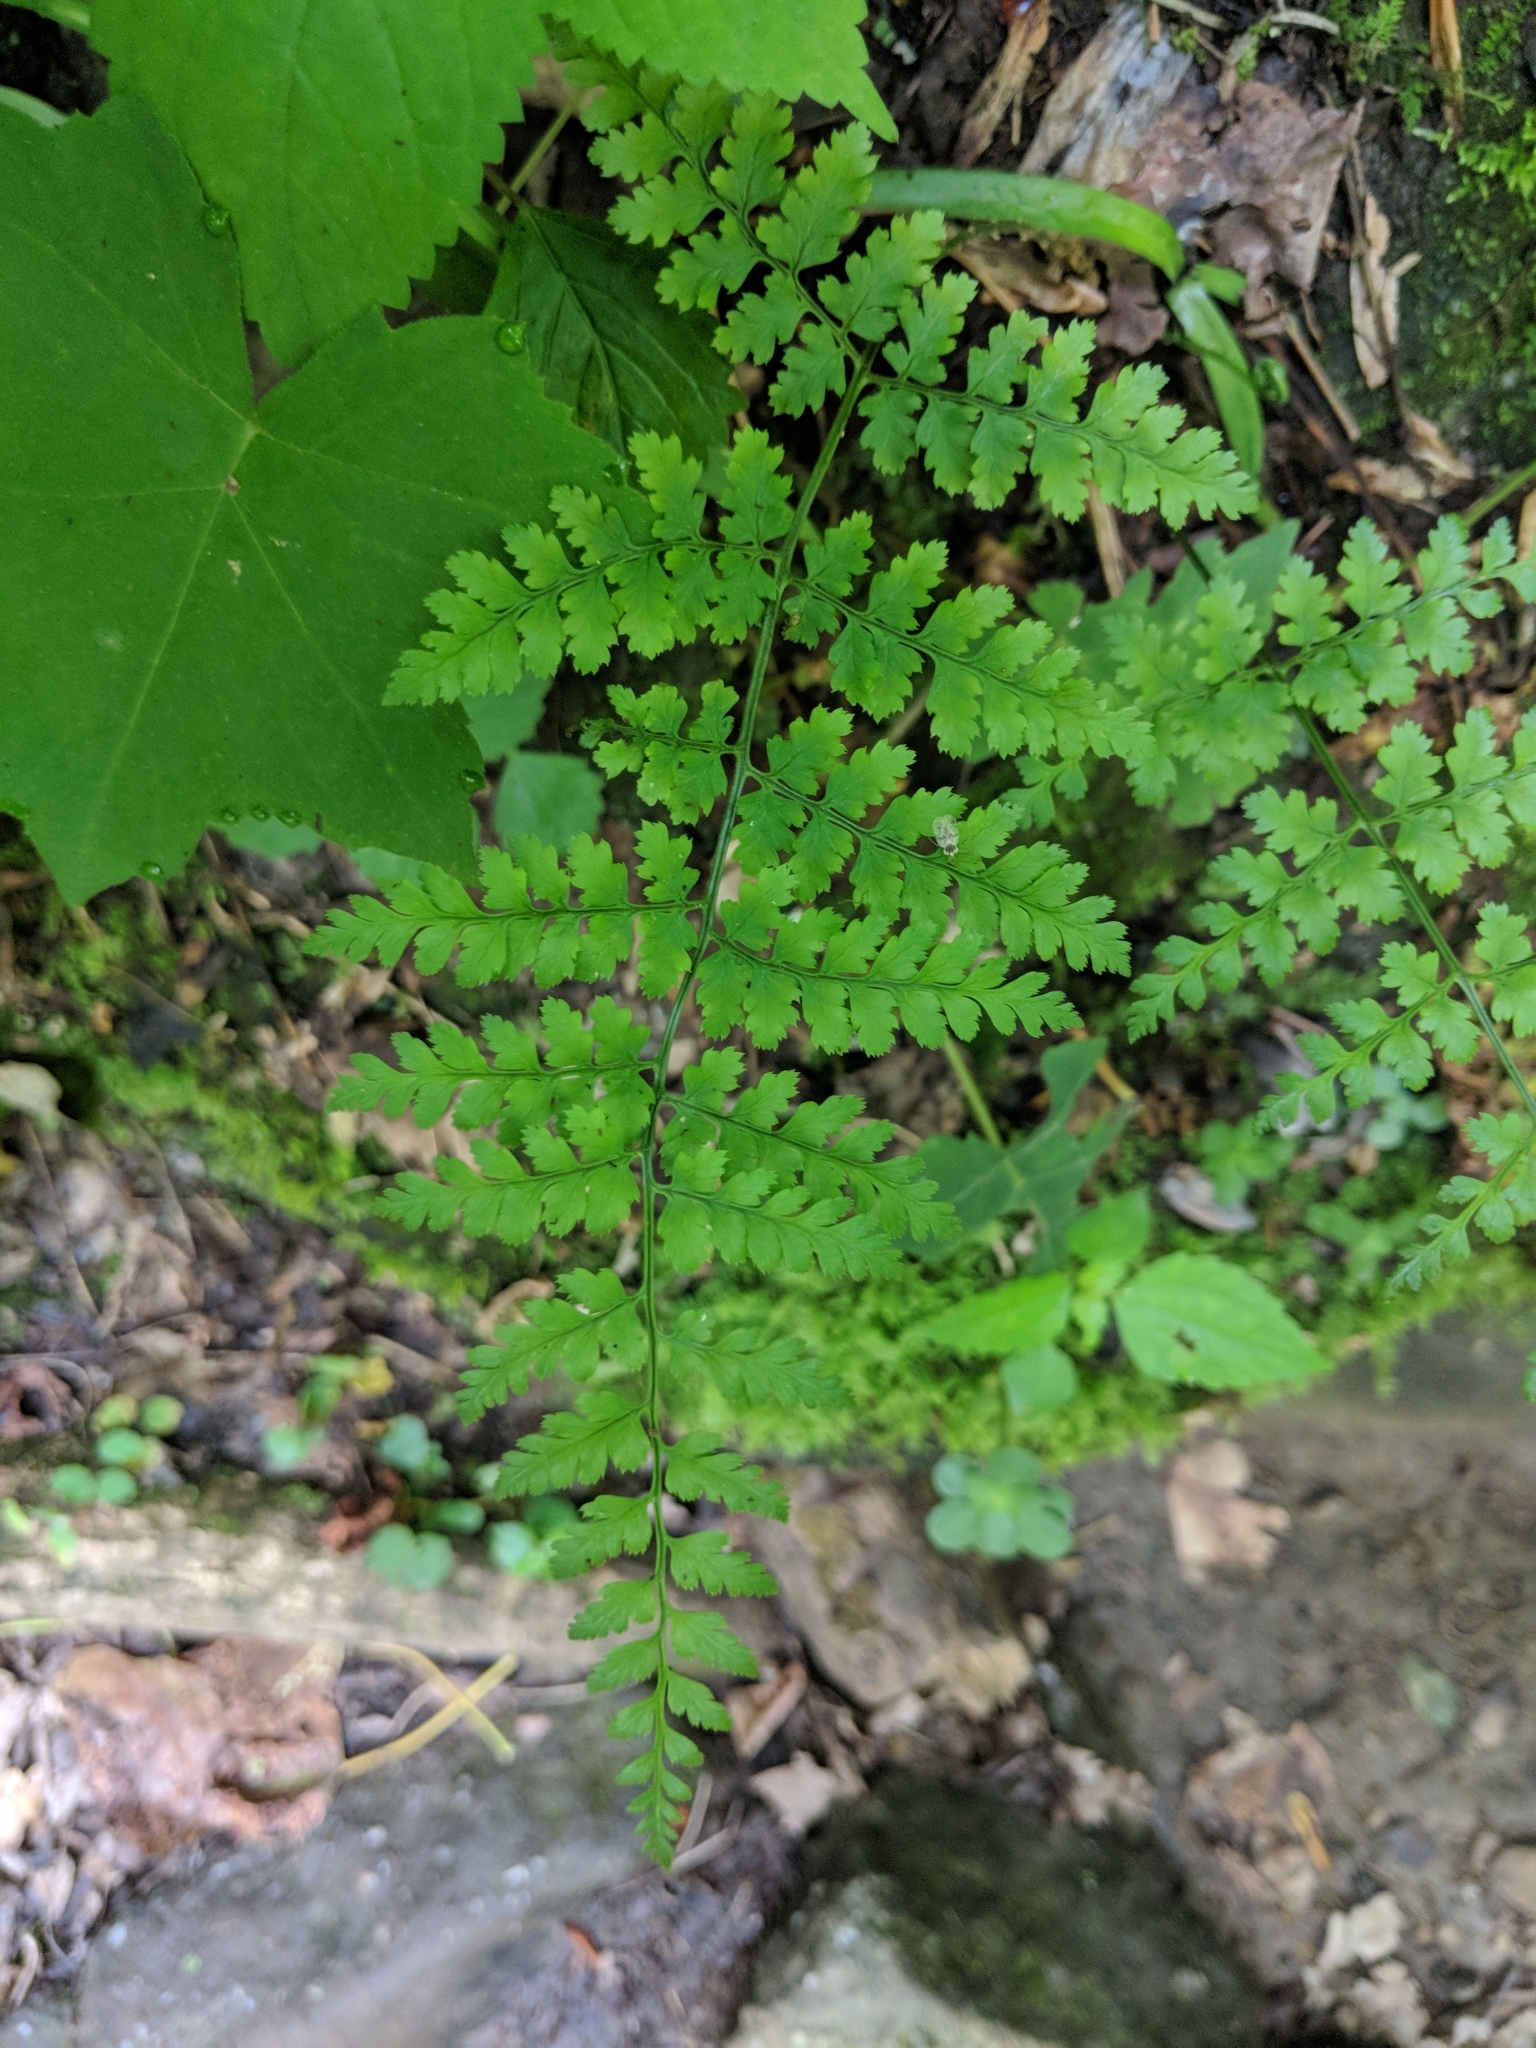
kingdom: Plantae
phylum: Tracheophyta
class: Polypodiopsida
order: Polypodiales
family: Dryopteridaceae
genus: Dryopteris
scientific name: Dryopteris intermedia
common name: Evergreen wood fern
